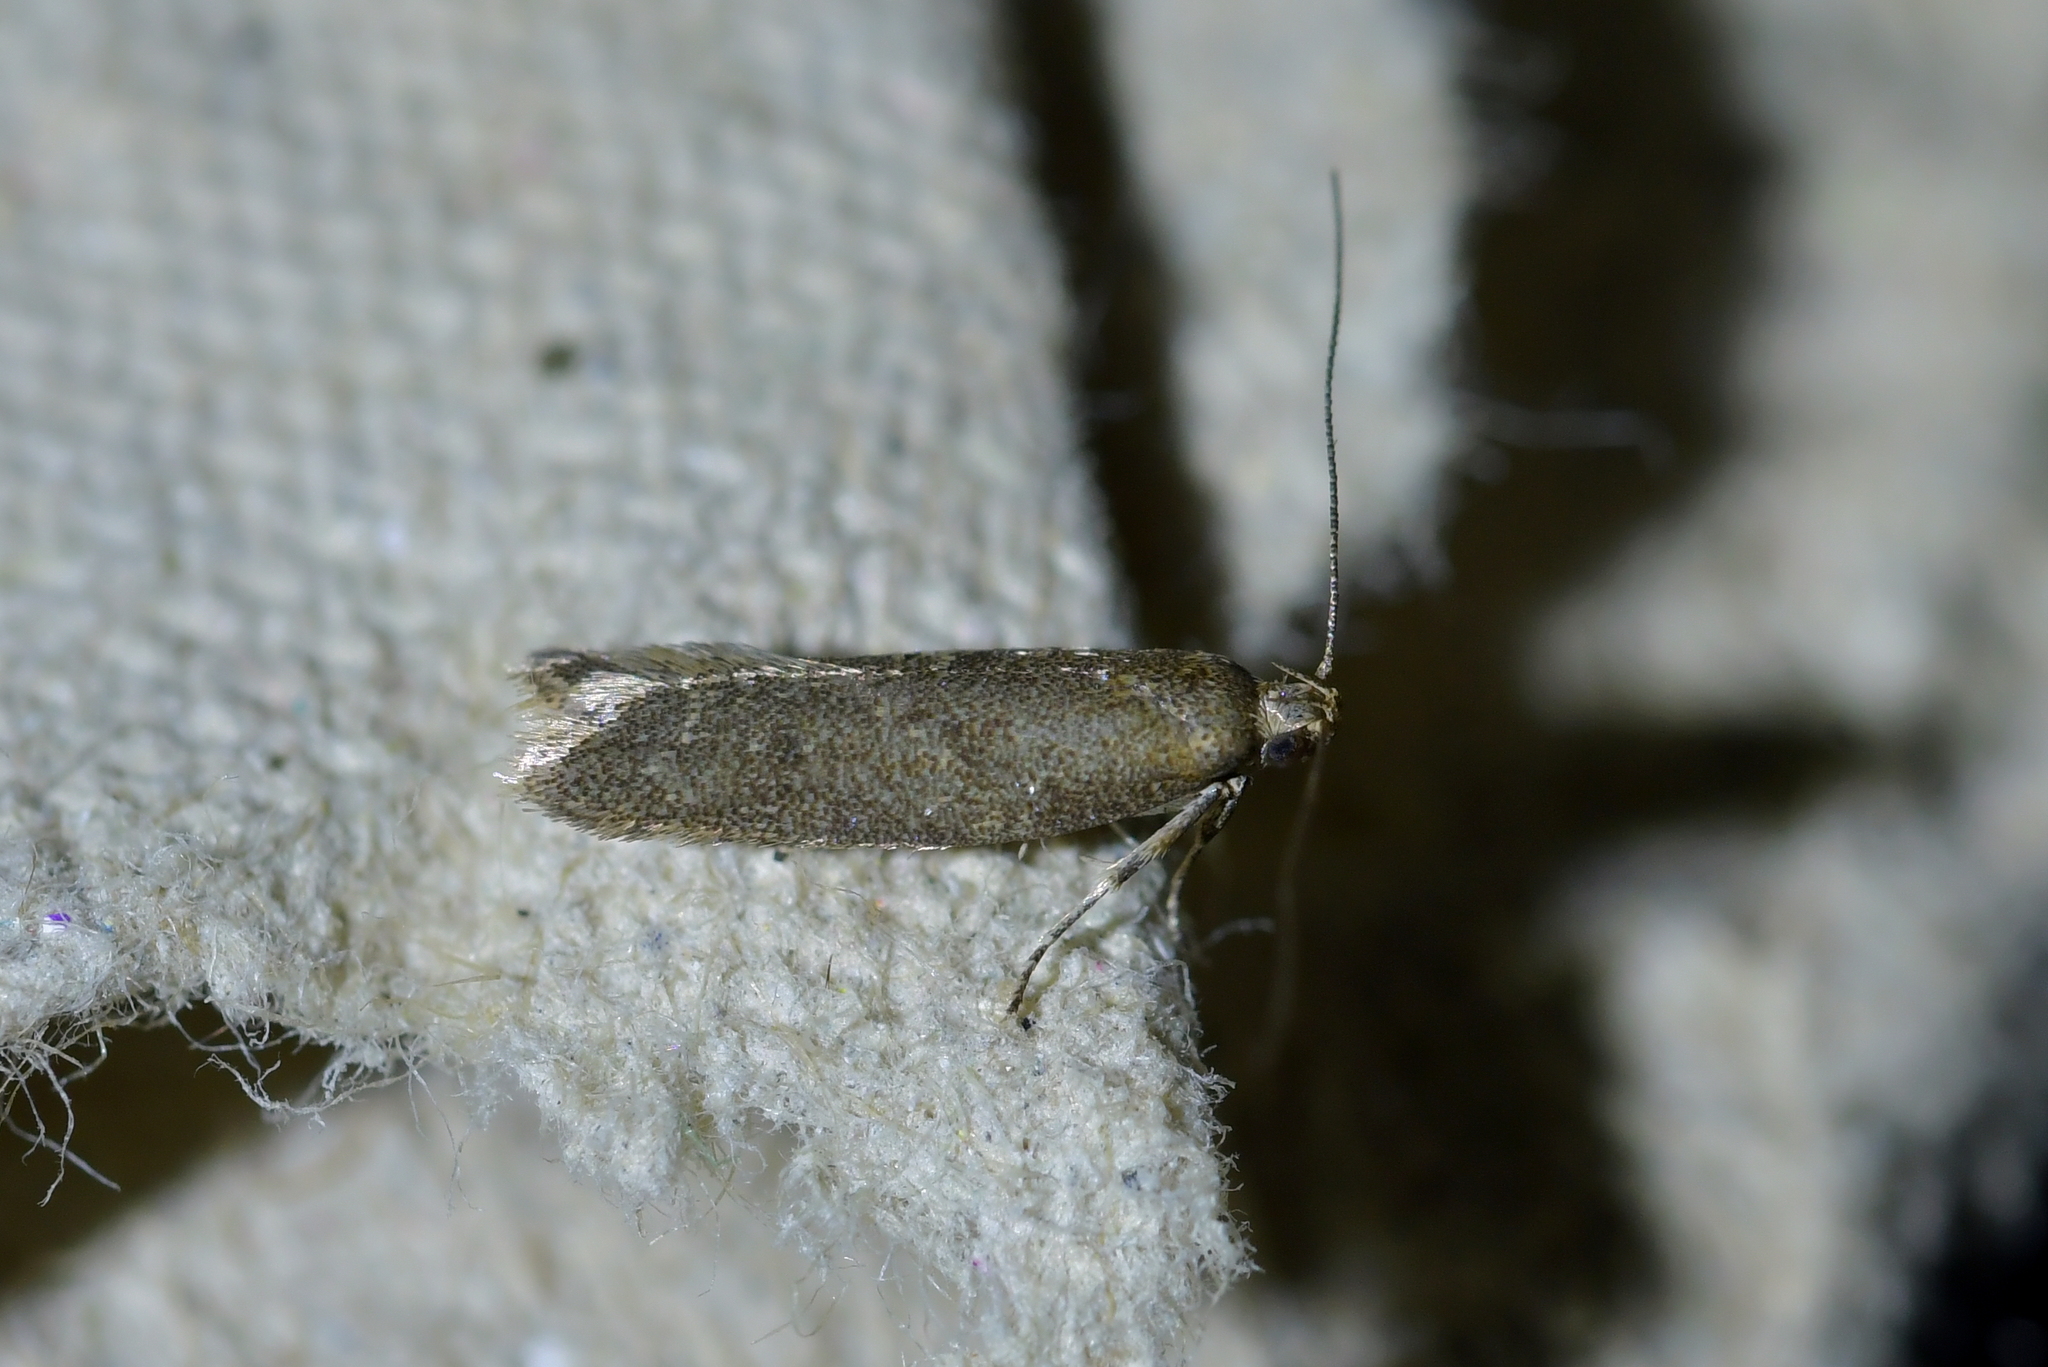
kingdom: Animalia
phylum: Arthropoda
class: Insecta
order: Lepidoptera
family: Oecophoridae
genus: Gymnobathra
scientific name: Gymnobathra tholodella
